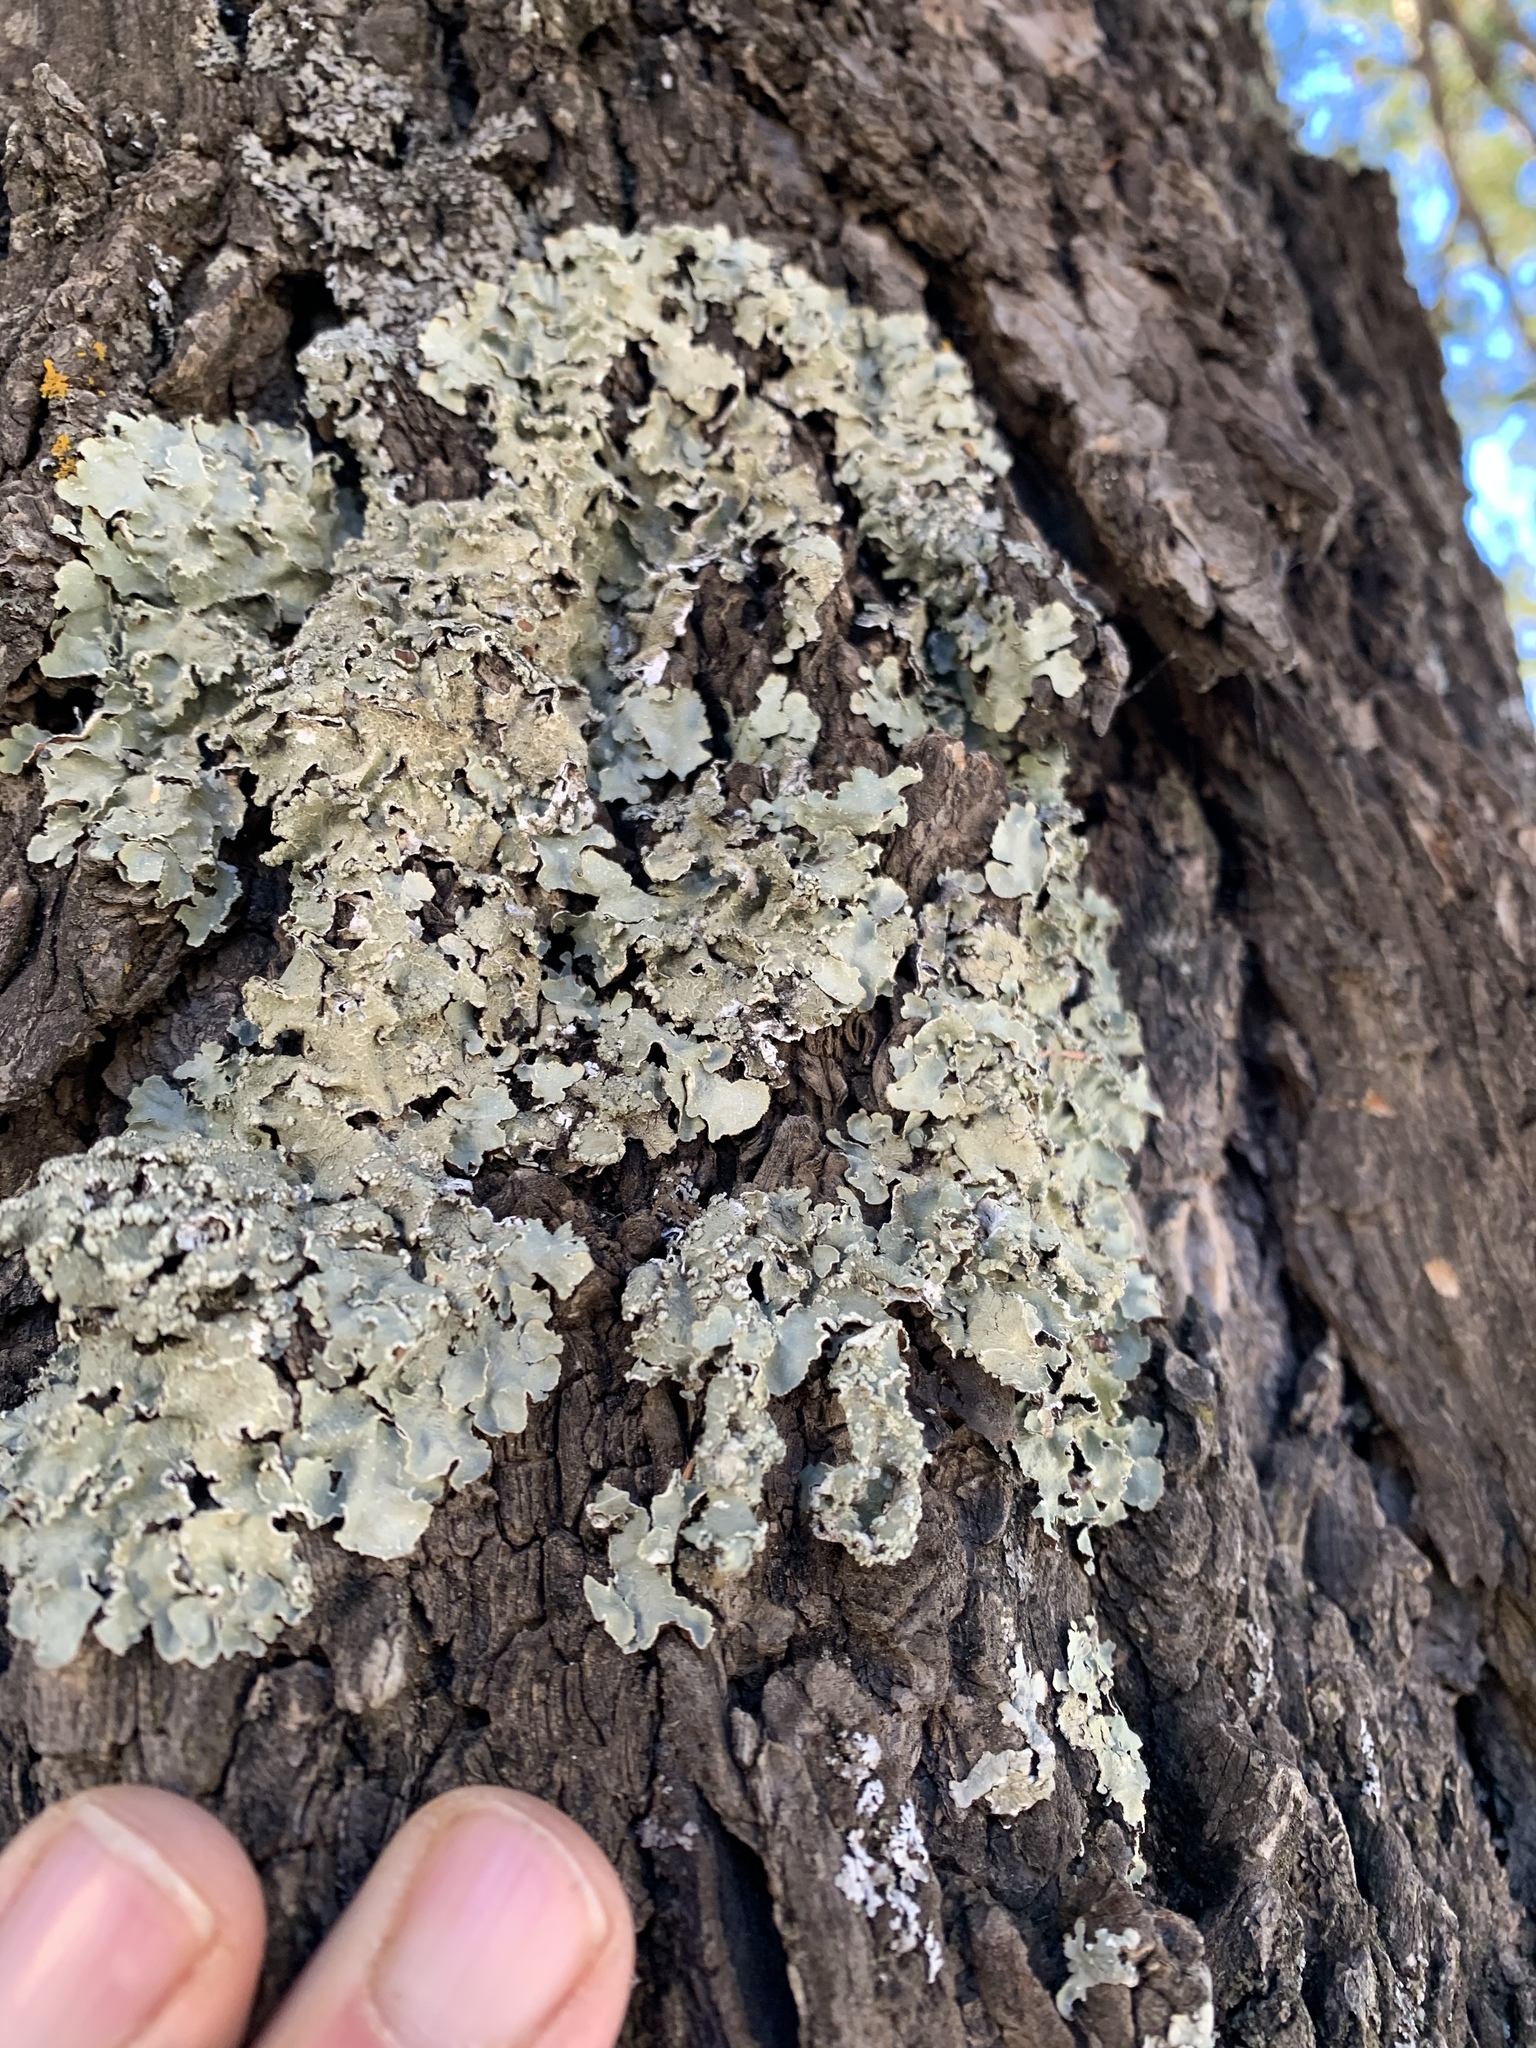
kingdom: Fungi
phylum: Ascomycota
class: Lecanoromycetes
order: Lecanorales
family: Parmeliaceae
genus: Flavopunctelia
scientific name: Flavopunctelia flaventior
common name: Speckled greenshield
